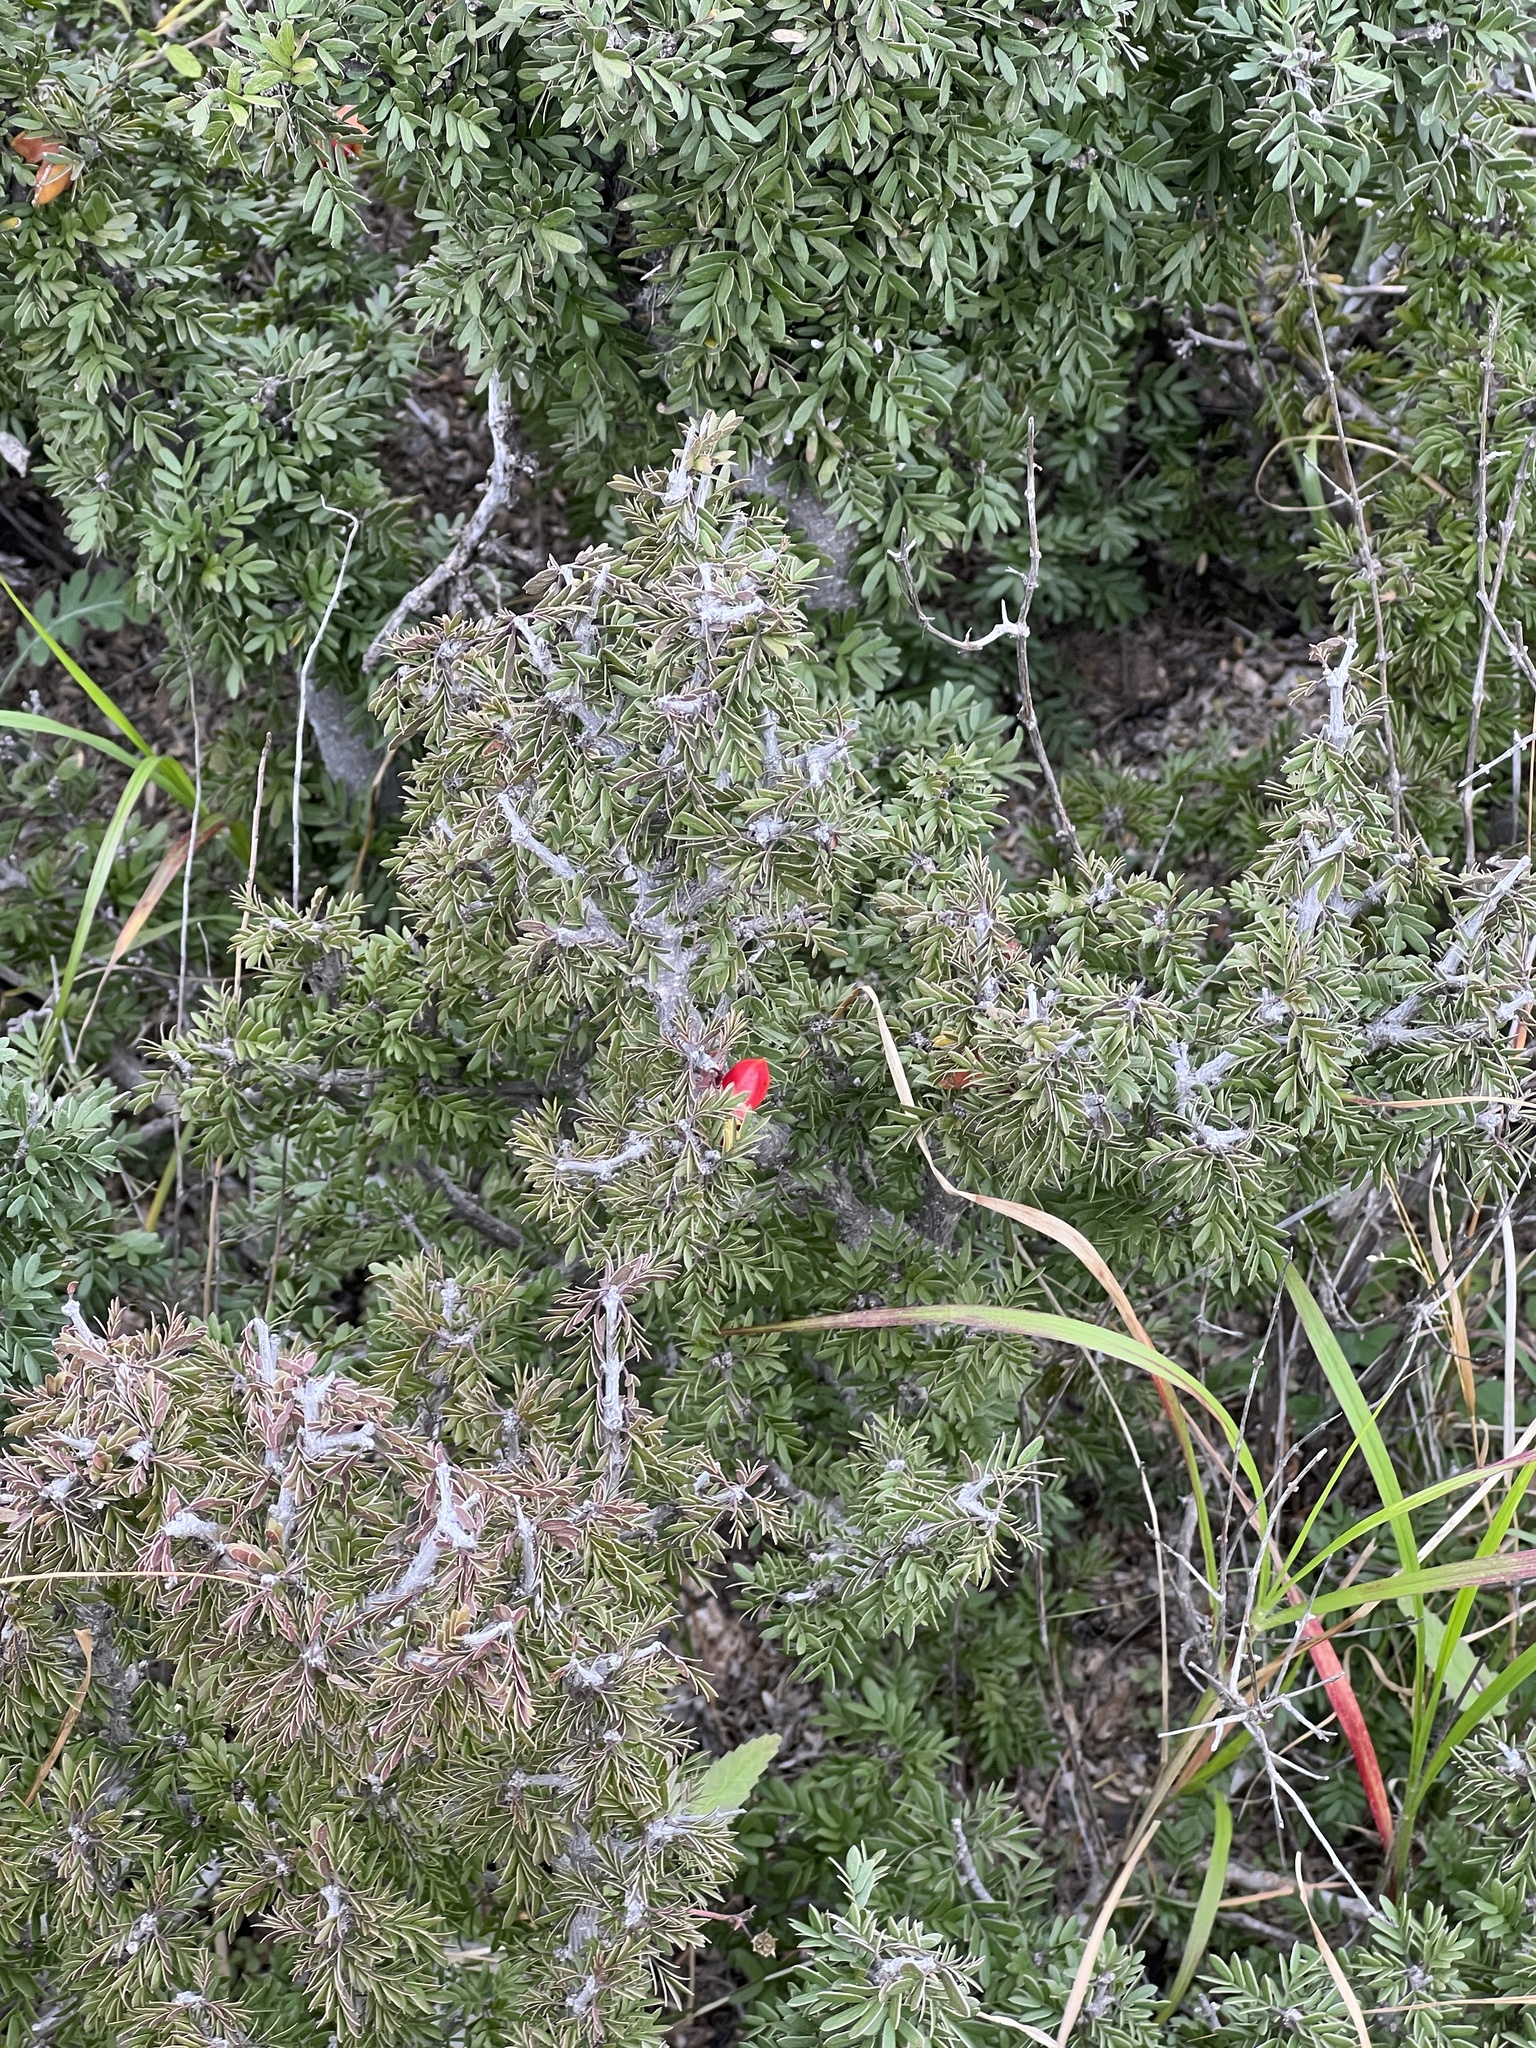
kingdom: Plantae
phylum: Tracheophyta
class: Magnoliopsida
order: Zygophyllales
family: Zygophyllaceae
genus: Porlieria
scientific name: Porlieria angustifolia
